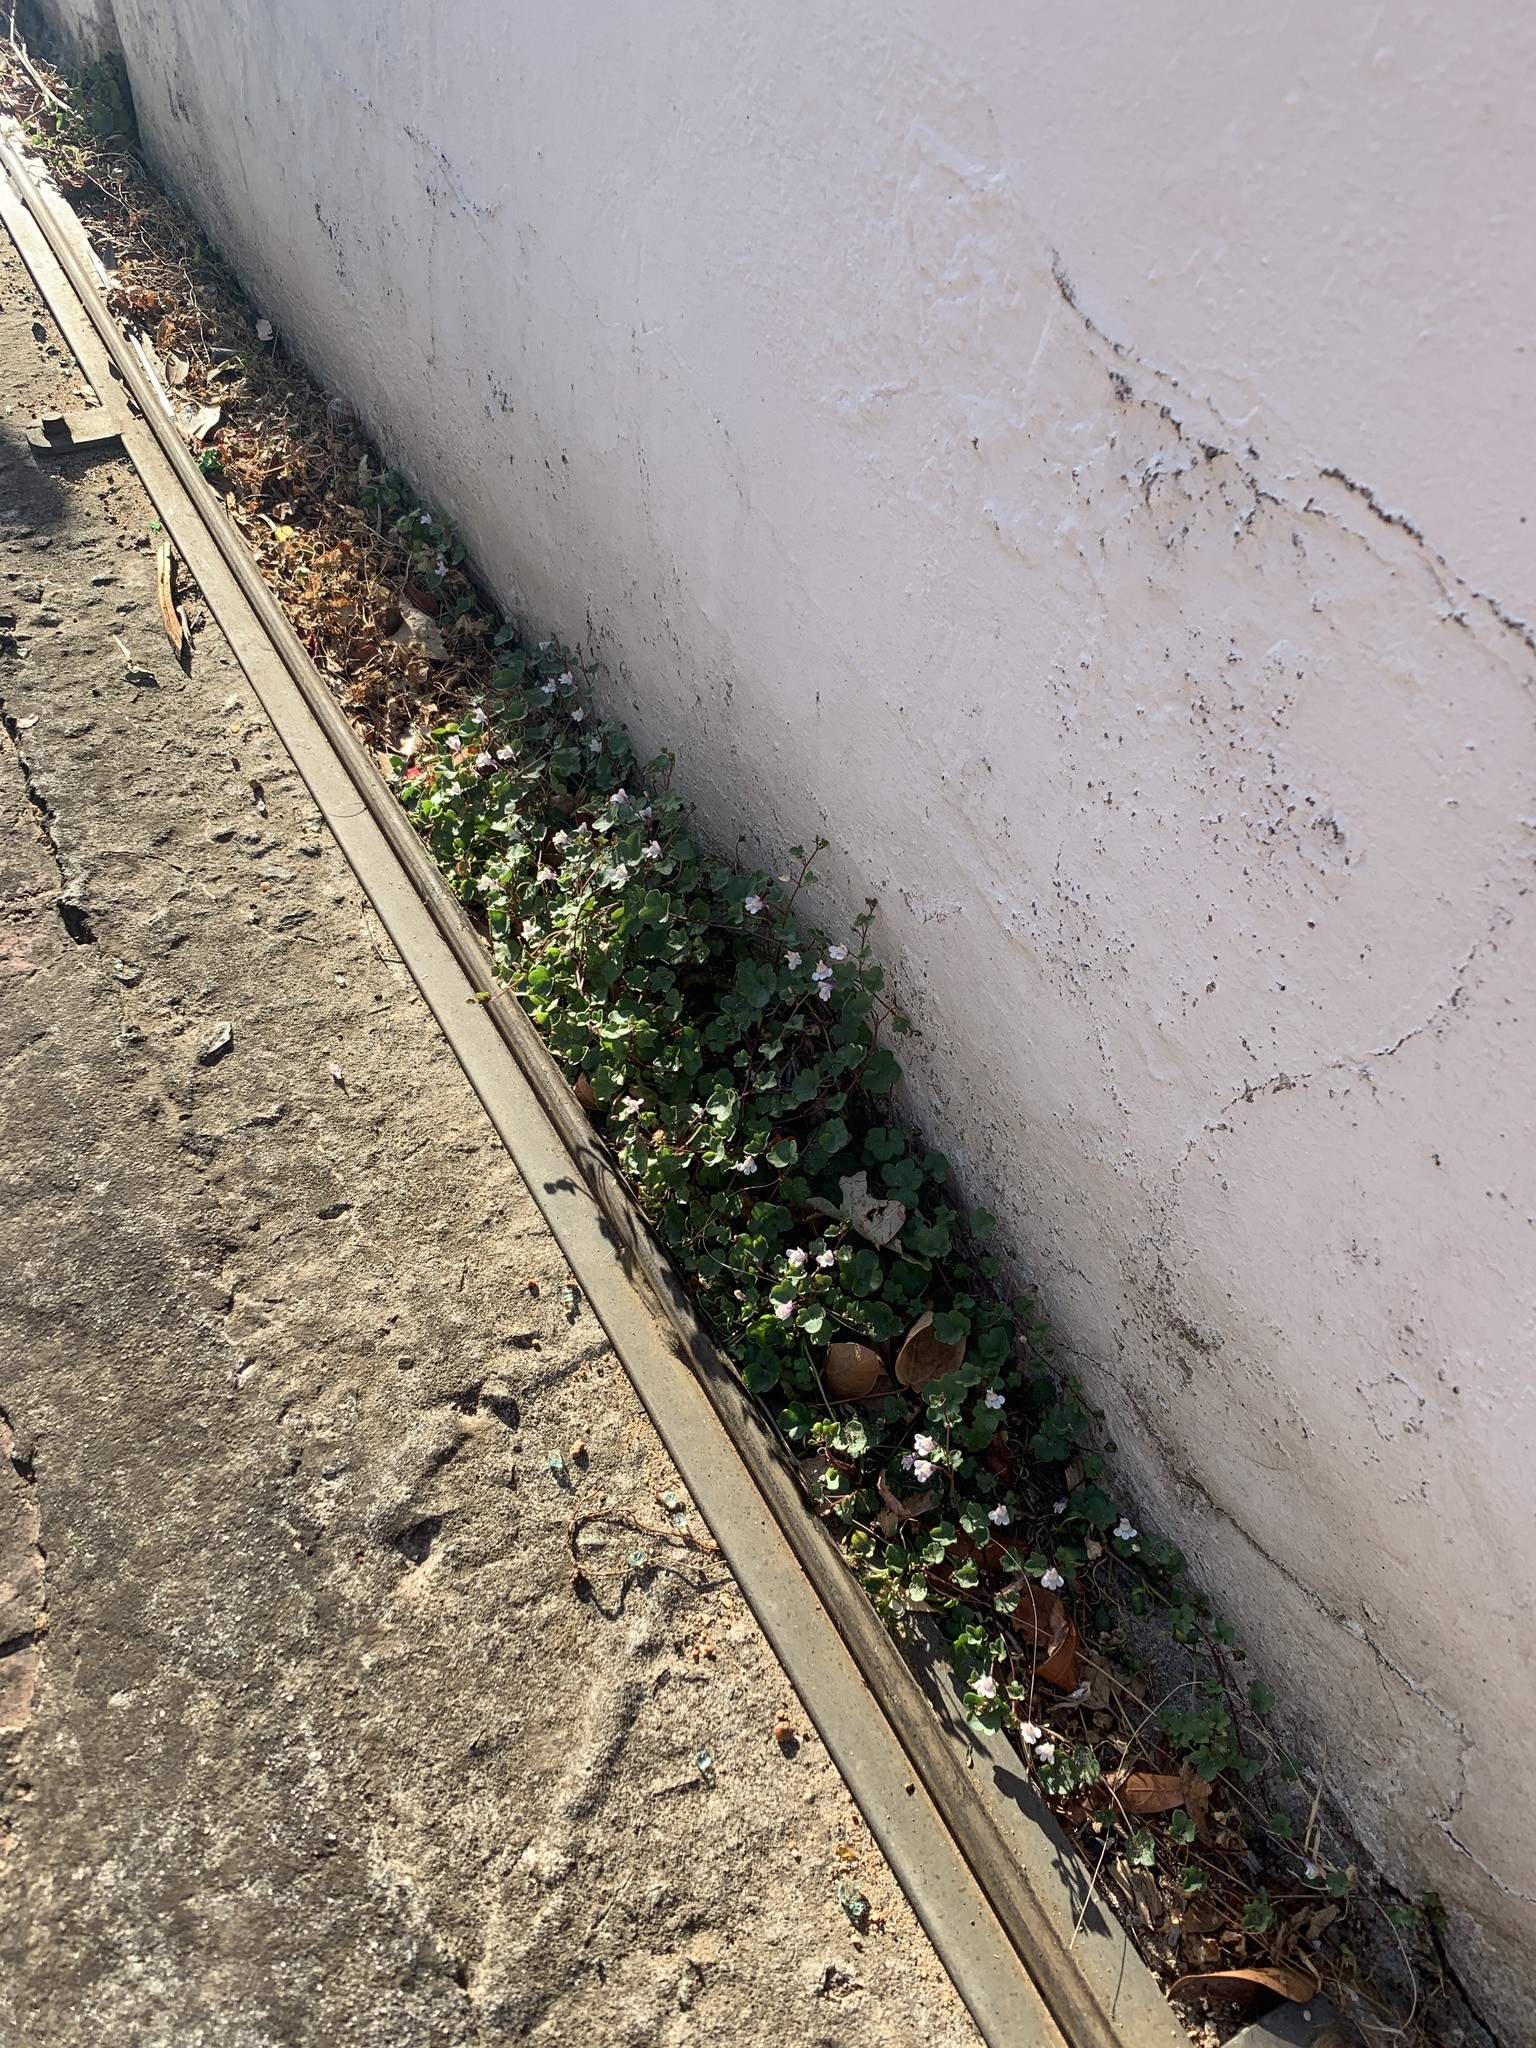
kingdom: Plantae
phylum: Tracheophyta
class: Magnoliopsida
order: Lamiales
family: Plantaginaceae
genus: Cymbalaria
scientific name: Cymbalaria muralis
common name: Ivy-leaved toadflax
